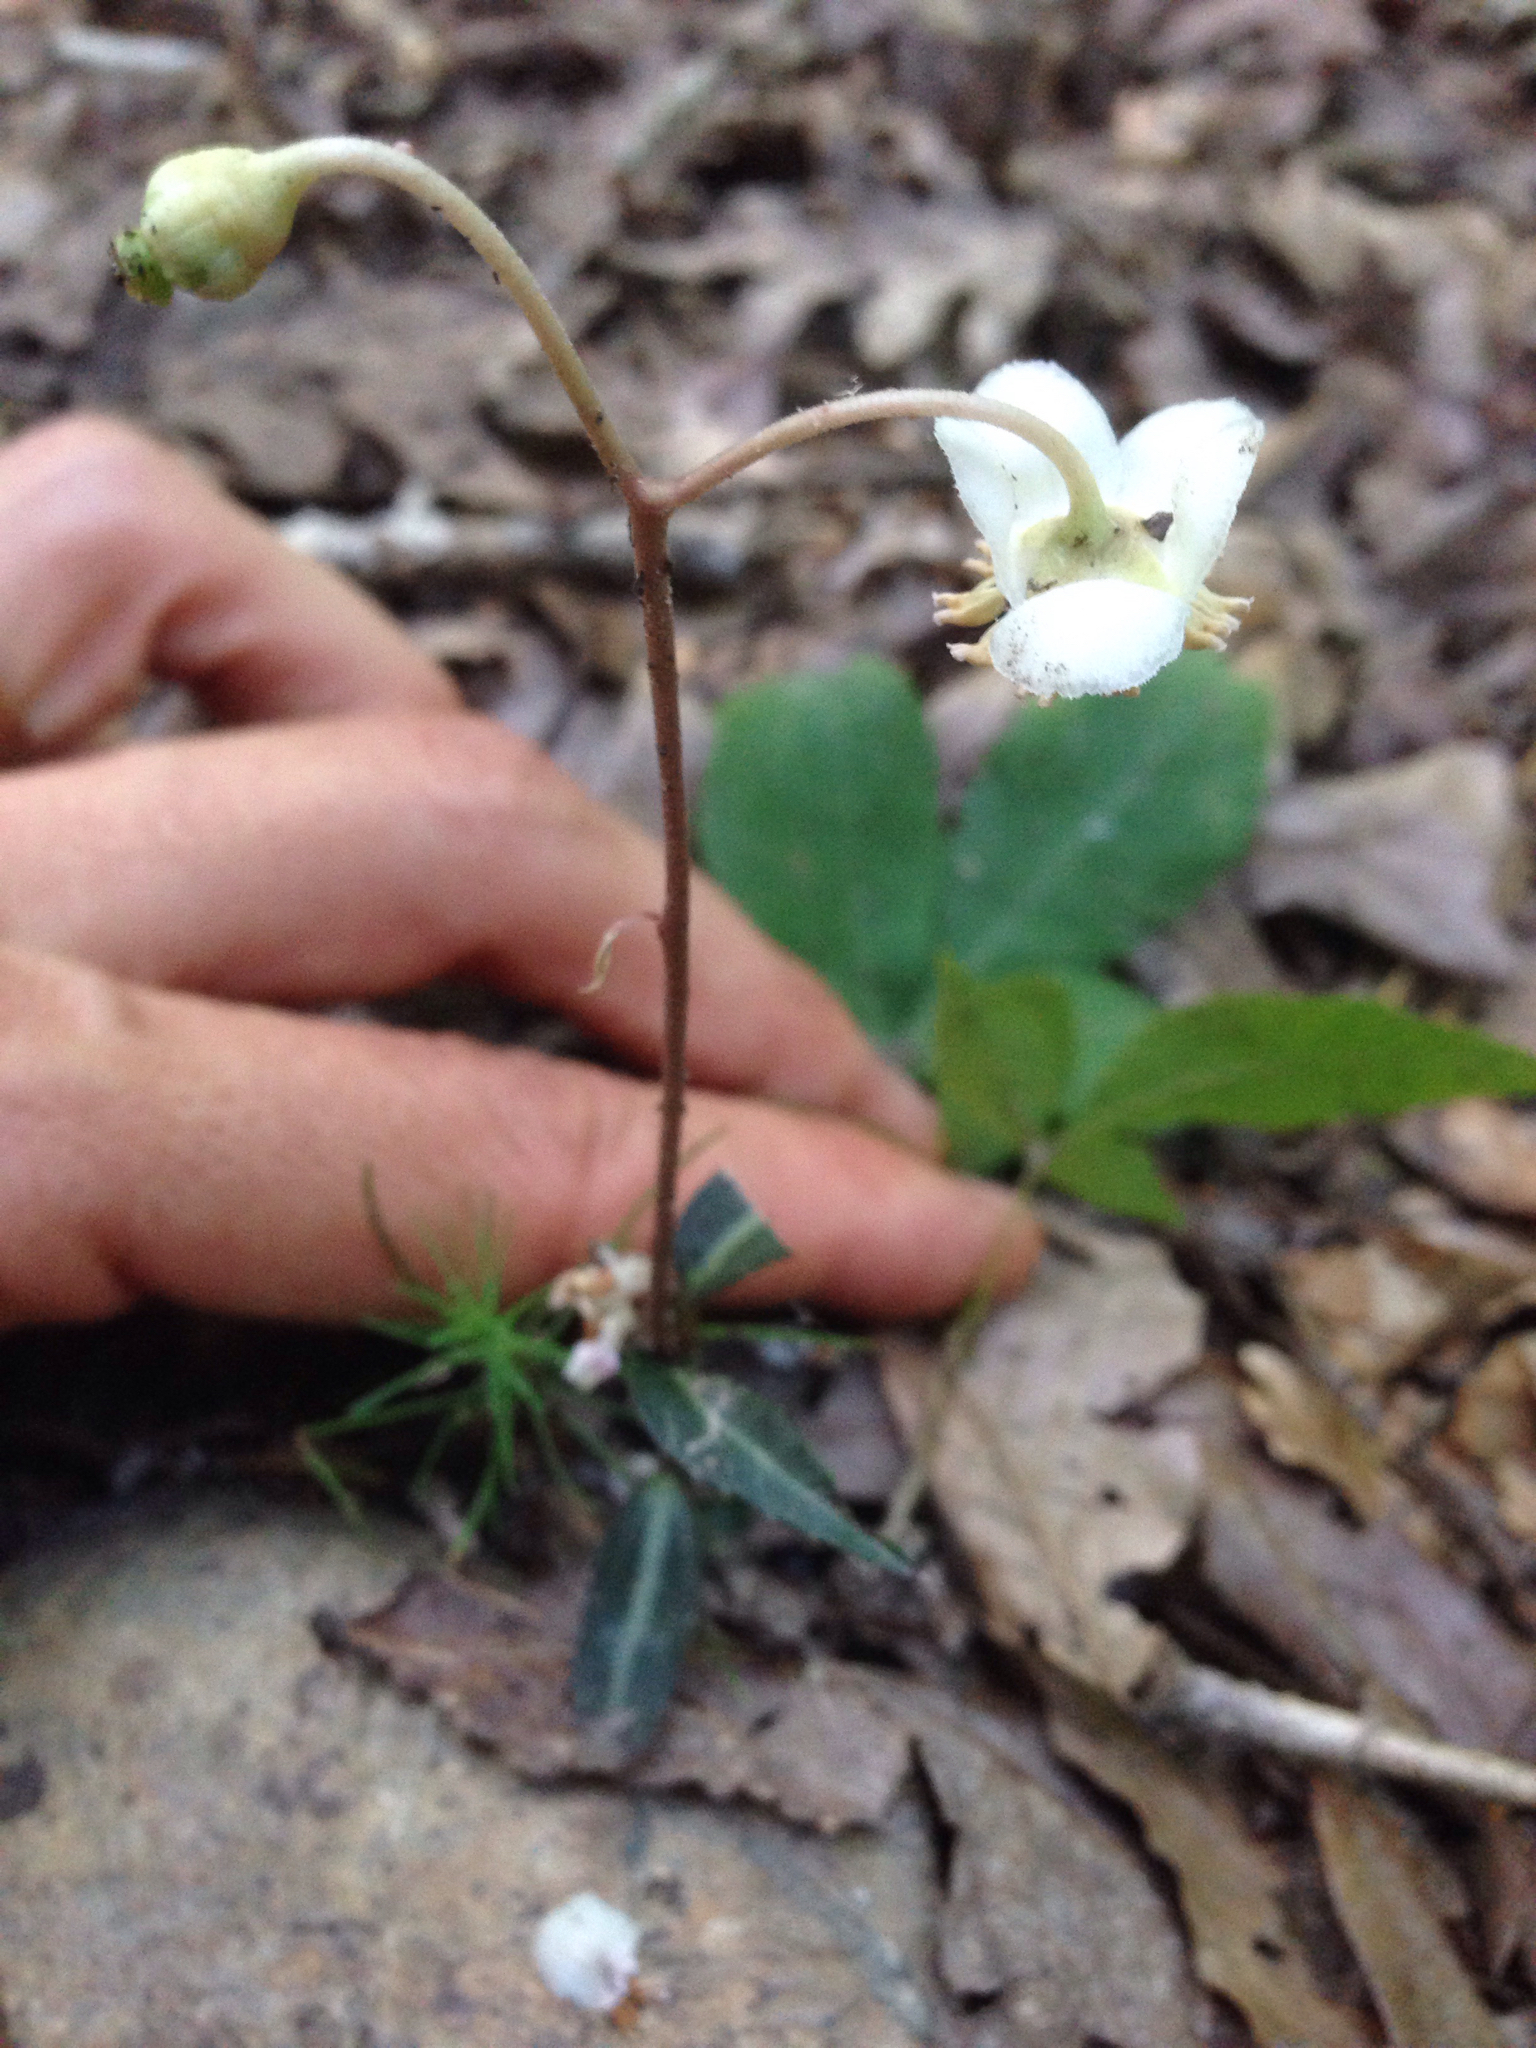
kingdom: Plantae
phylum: Tracheophyta
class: Magnoliopsida
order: Ericales
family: Ericaceae
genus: Chimaphila
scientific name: Chimaphila maculata
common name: Spotted pipsissewa
